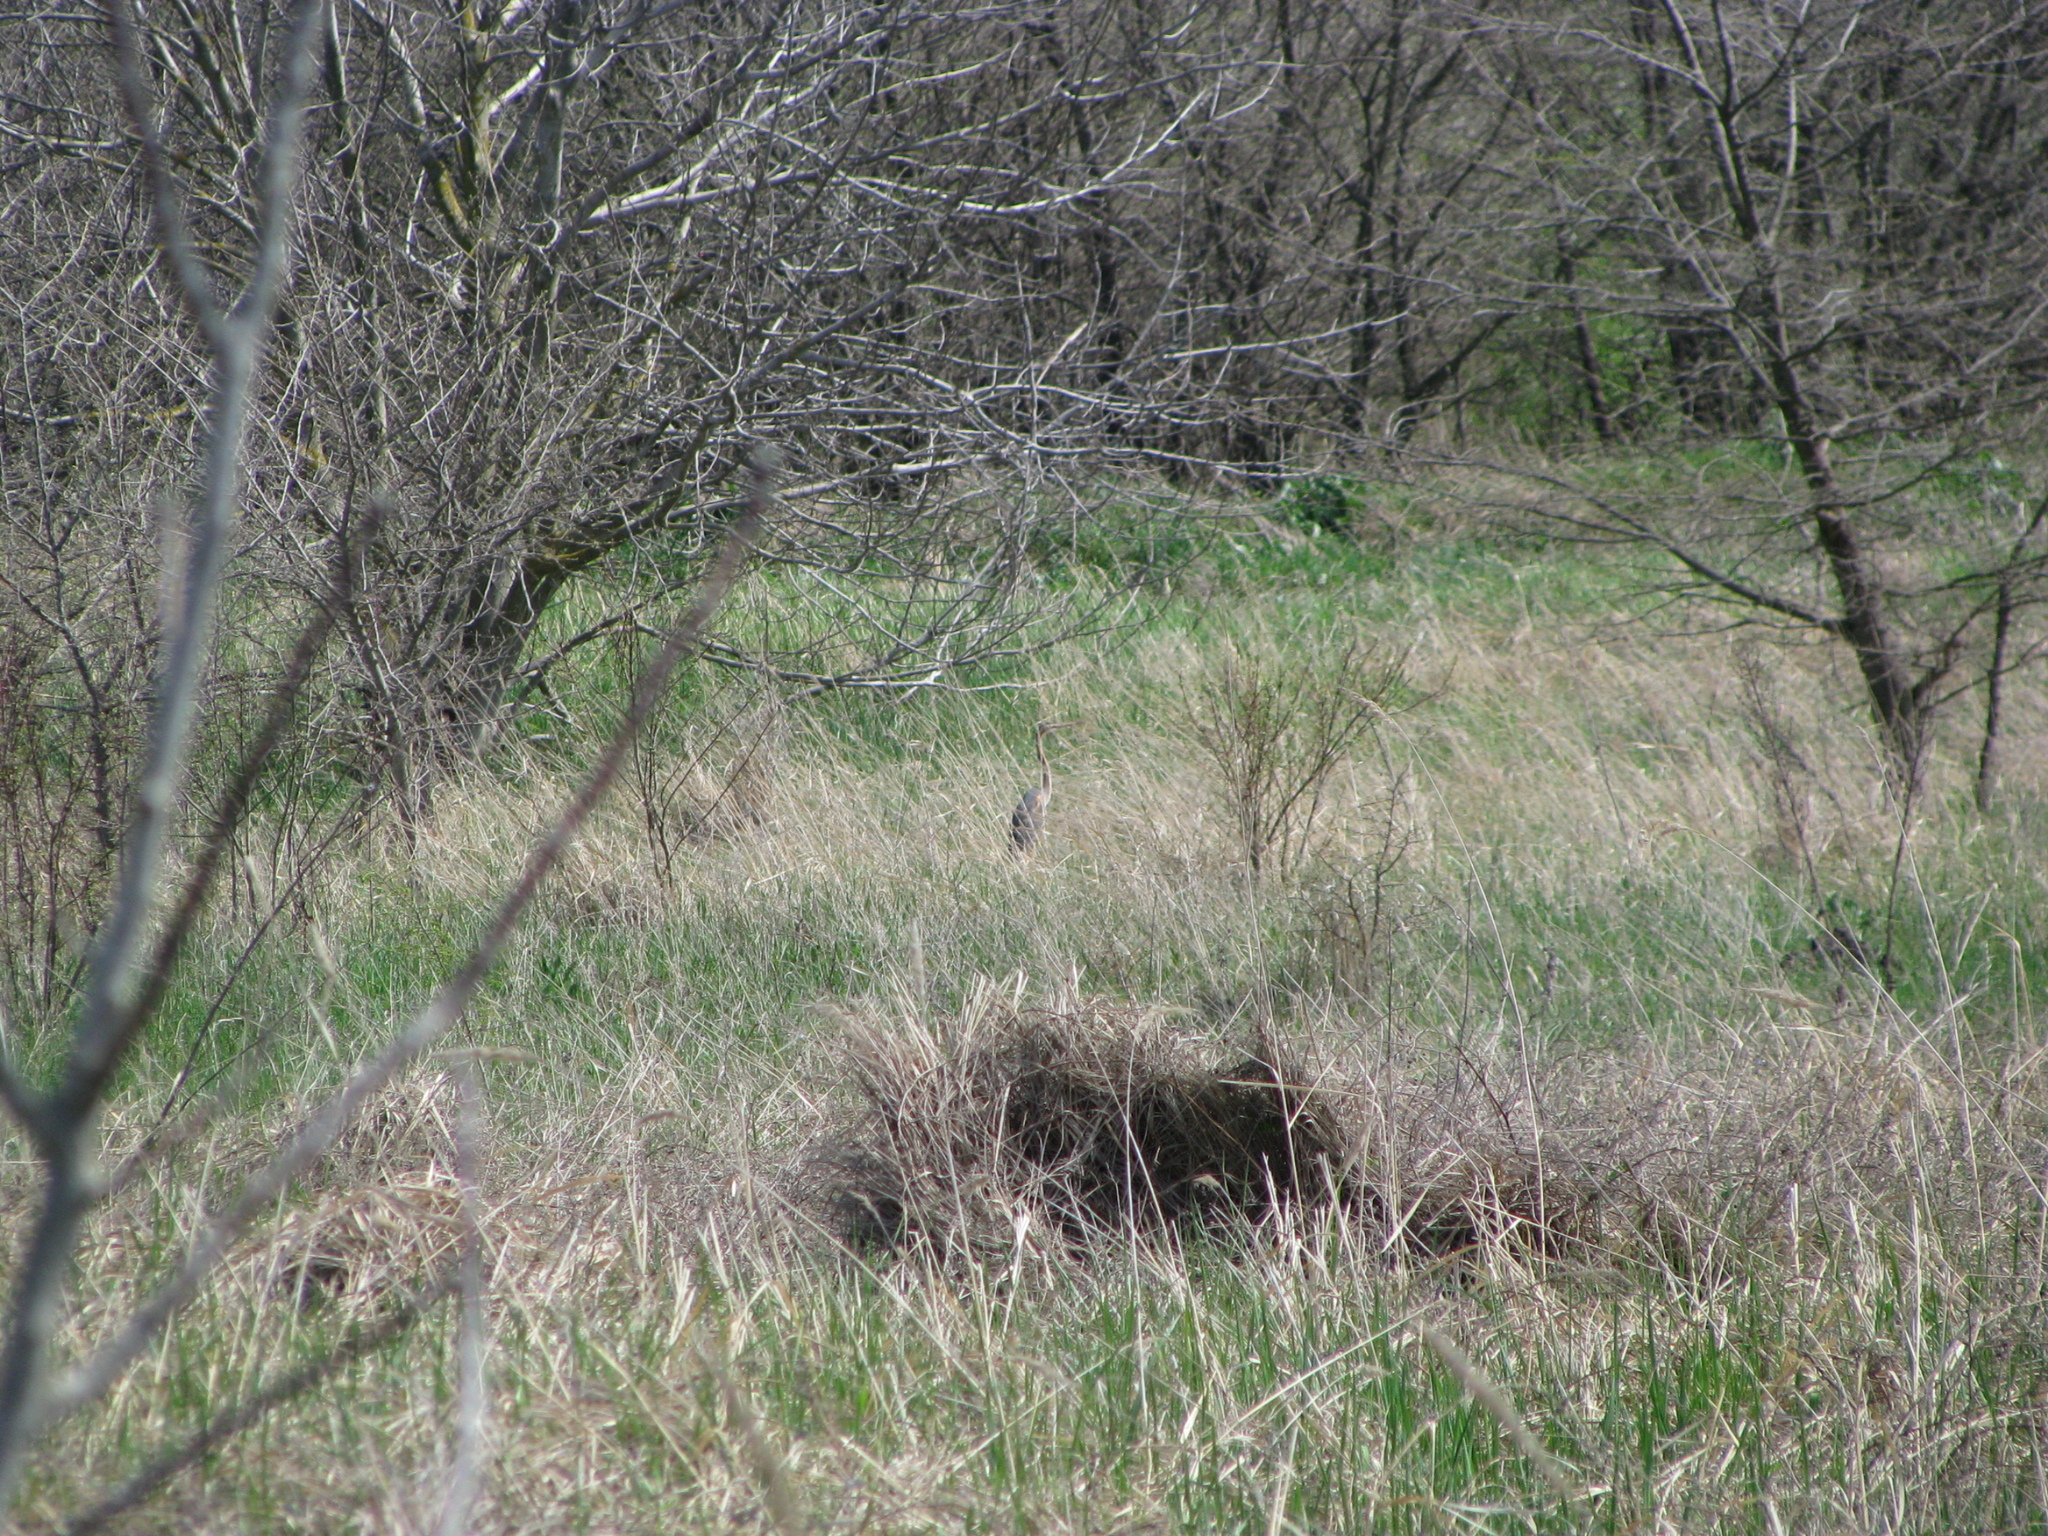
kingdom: Animalia
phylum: Chordata
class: Aves
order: Pelecaniformes
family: Ardeidae
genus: Ardea
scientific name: Ardea purpurea
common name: Purple heron
